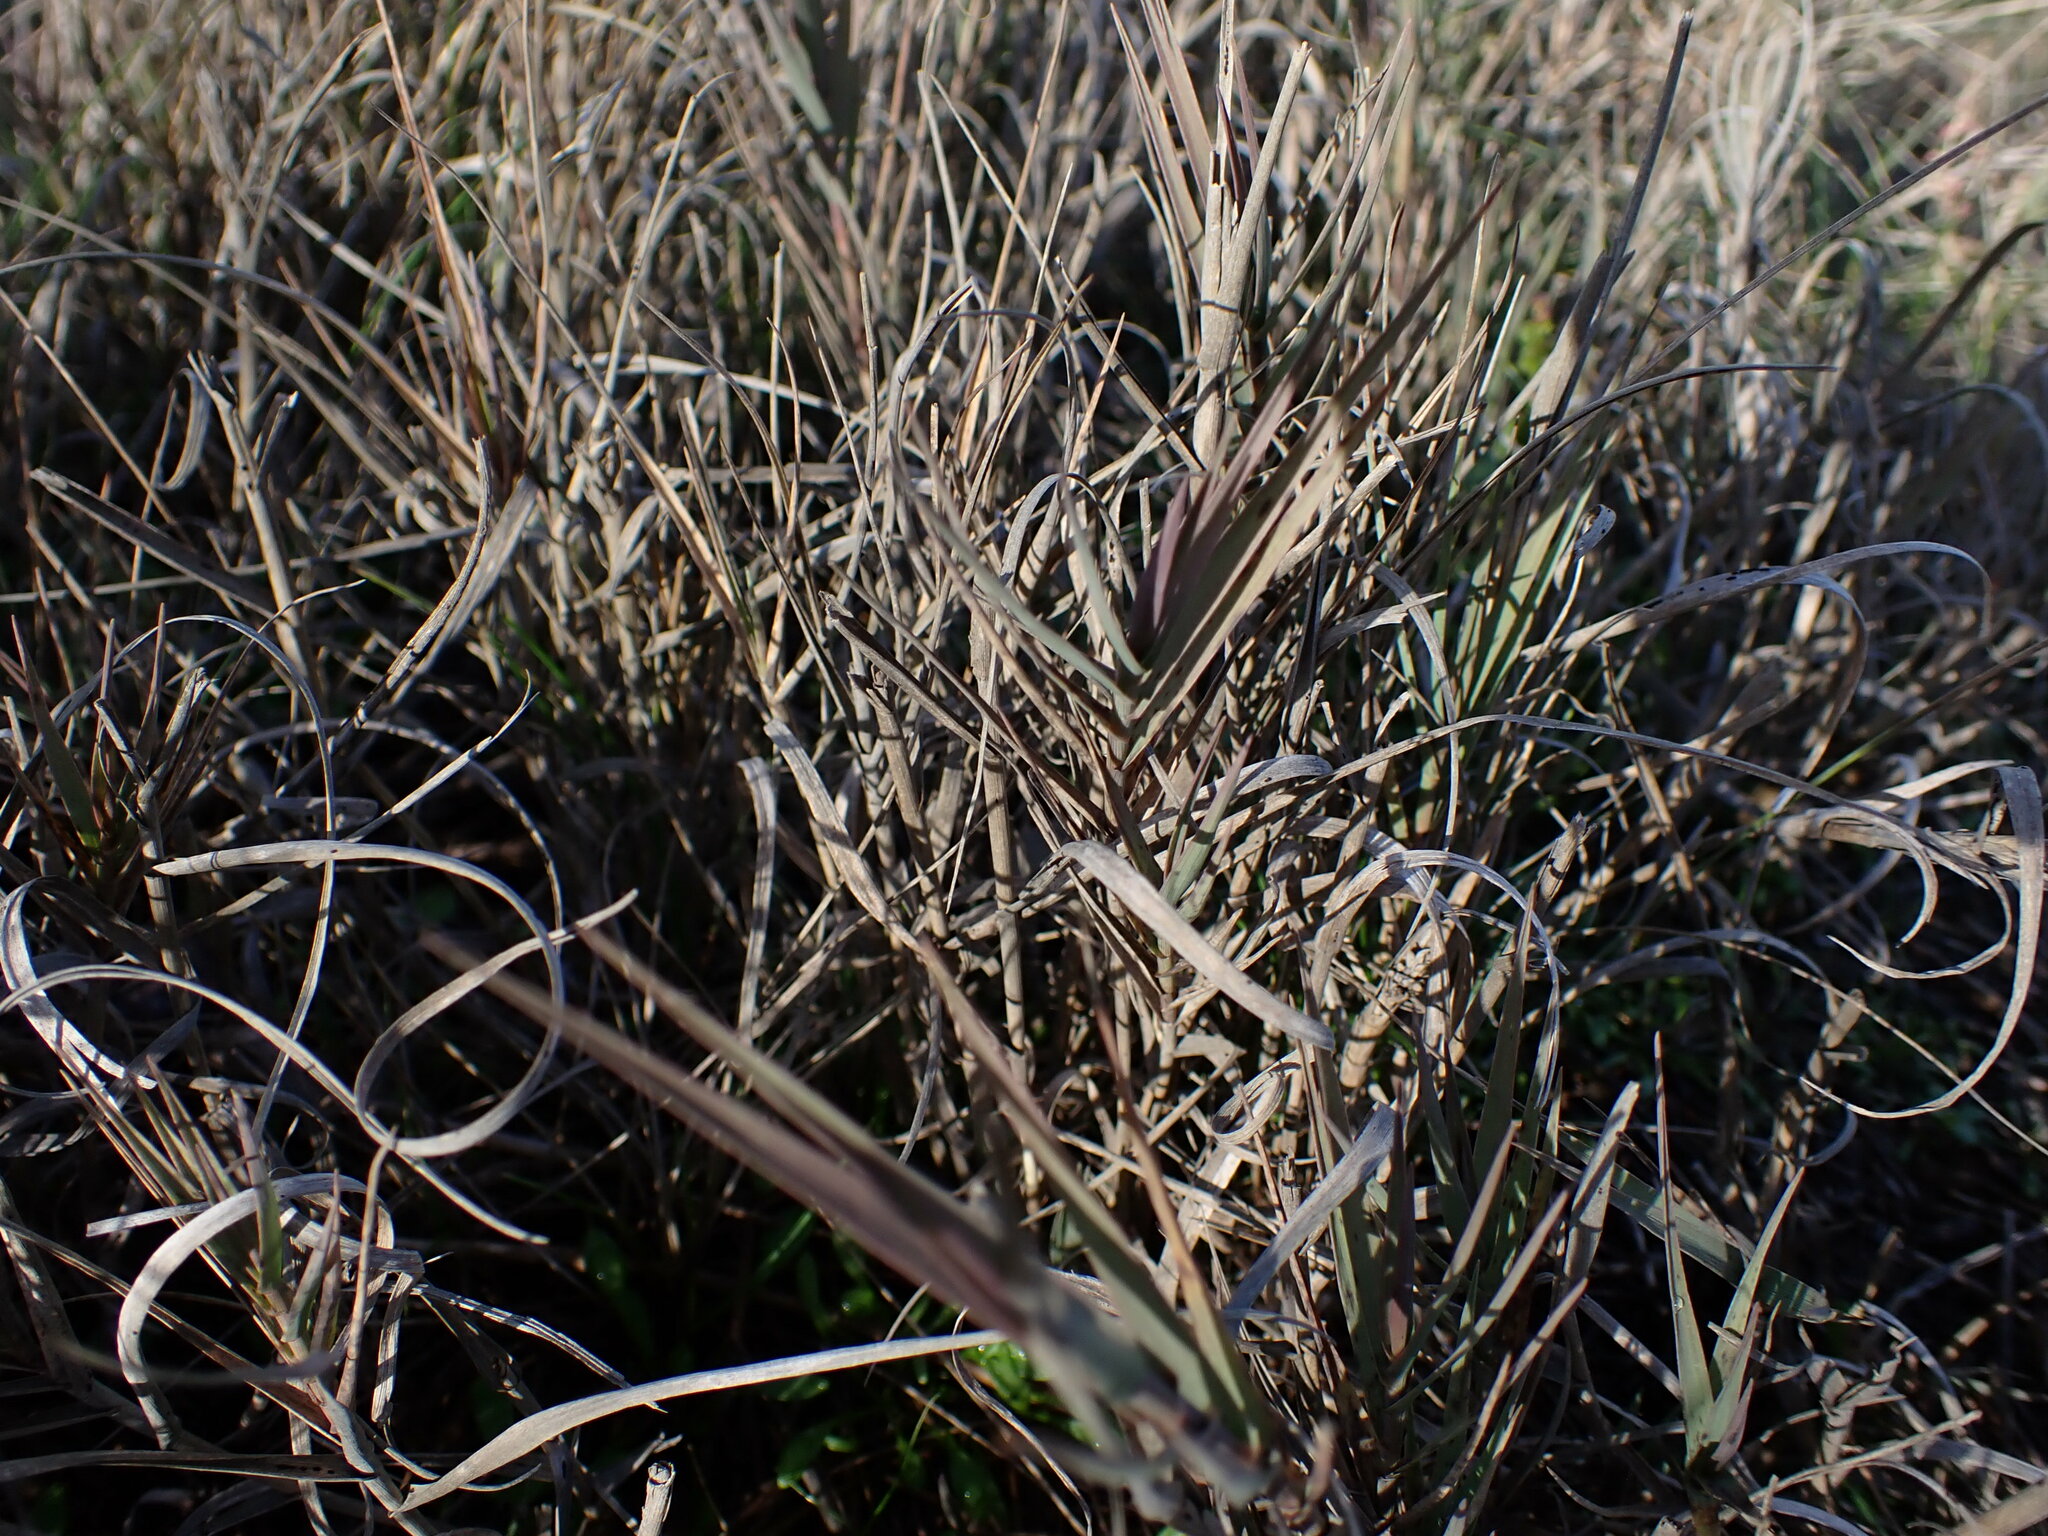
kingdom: Plantae
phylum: Tracheophyta
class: Liliopsida
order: Poales
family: Poaceae
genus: Distichlis
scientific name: Distichlis spicata
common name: Saltgrass
